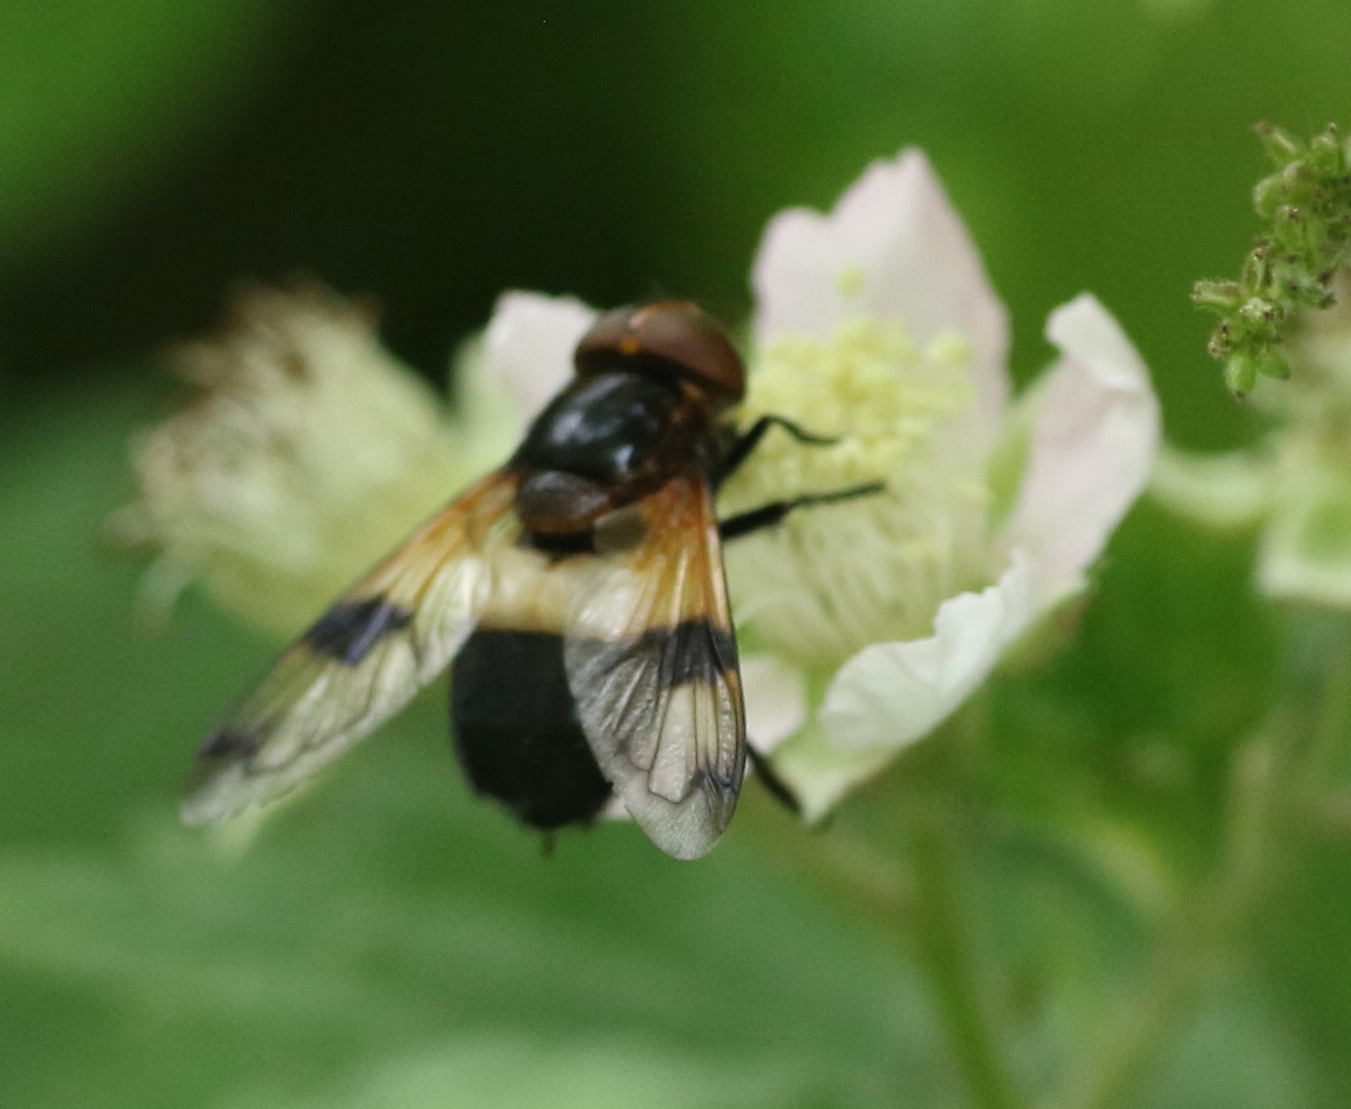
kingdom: Animalia
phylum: Arthropoda
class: Insecta
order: Diptera
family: Syrphidae
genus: Volucella
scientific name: Volucella pellucens
